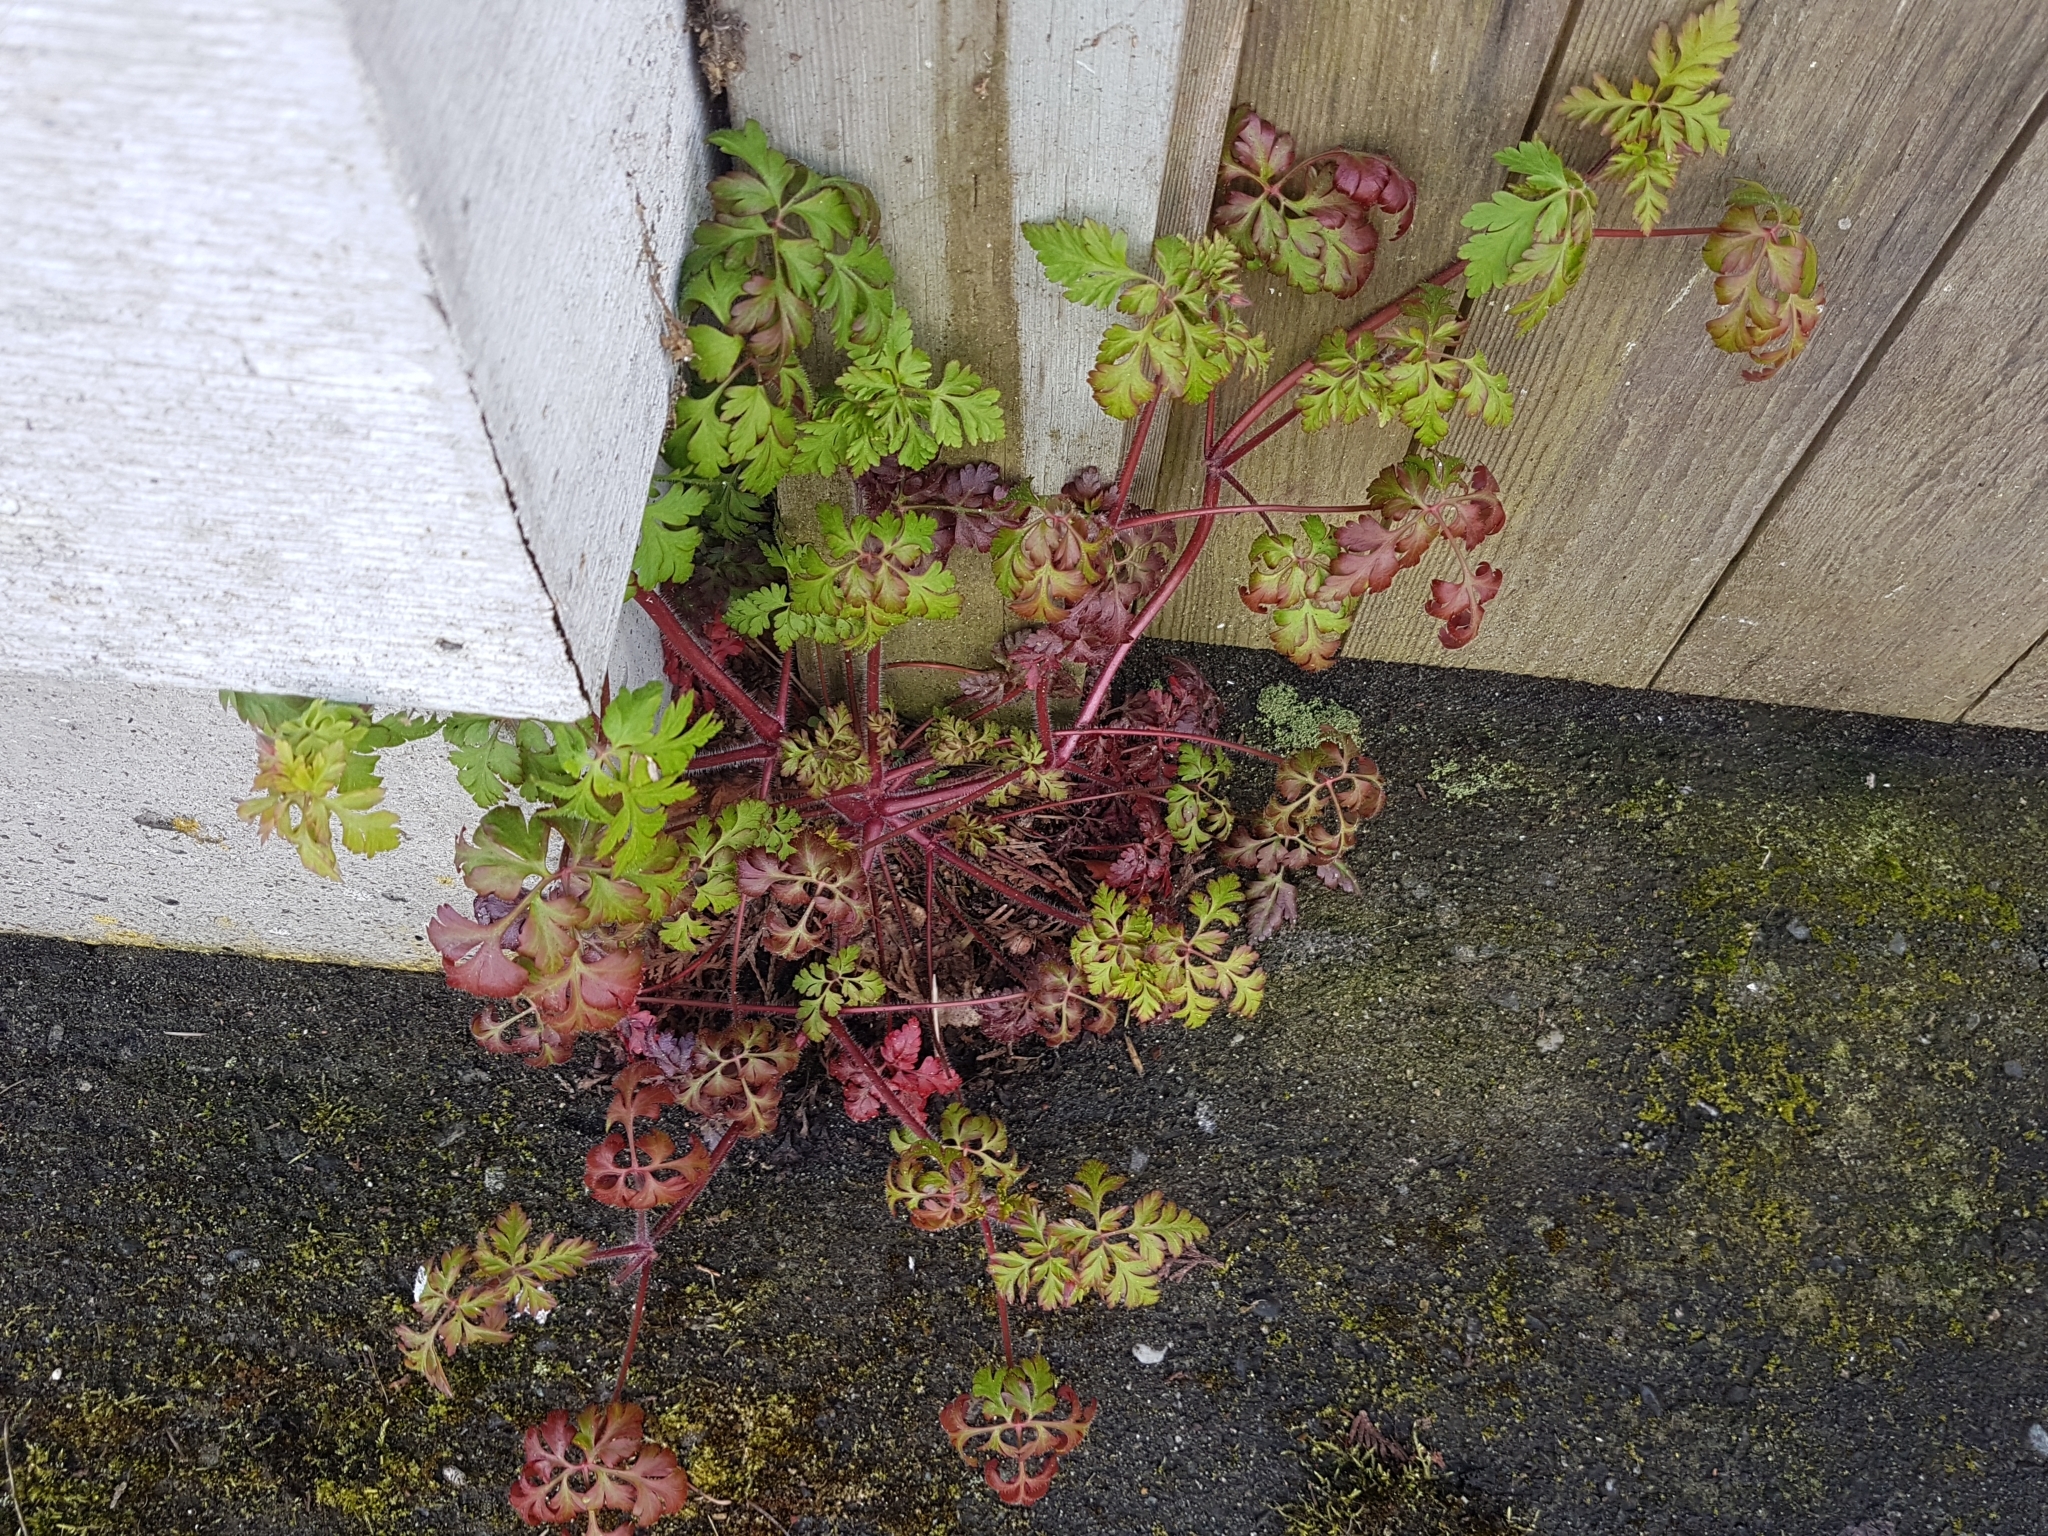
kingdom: Plantae
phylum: Tracheophyta
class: Magnoliopsida
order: Geraniales
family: Geraniaceae
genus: Geranium
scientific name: Geranium robertianum
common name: Herb-robert
